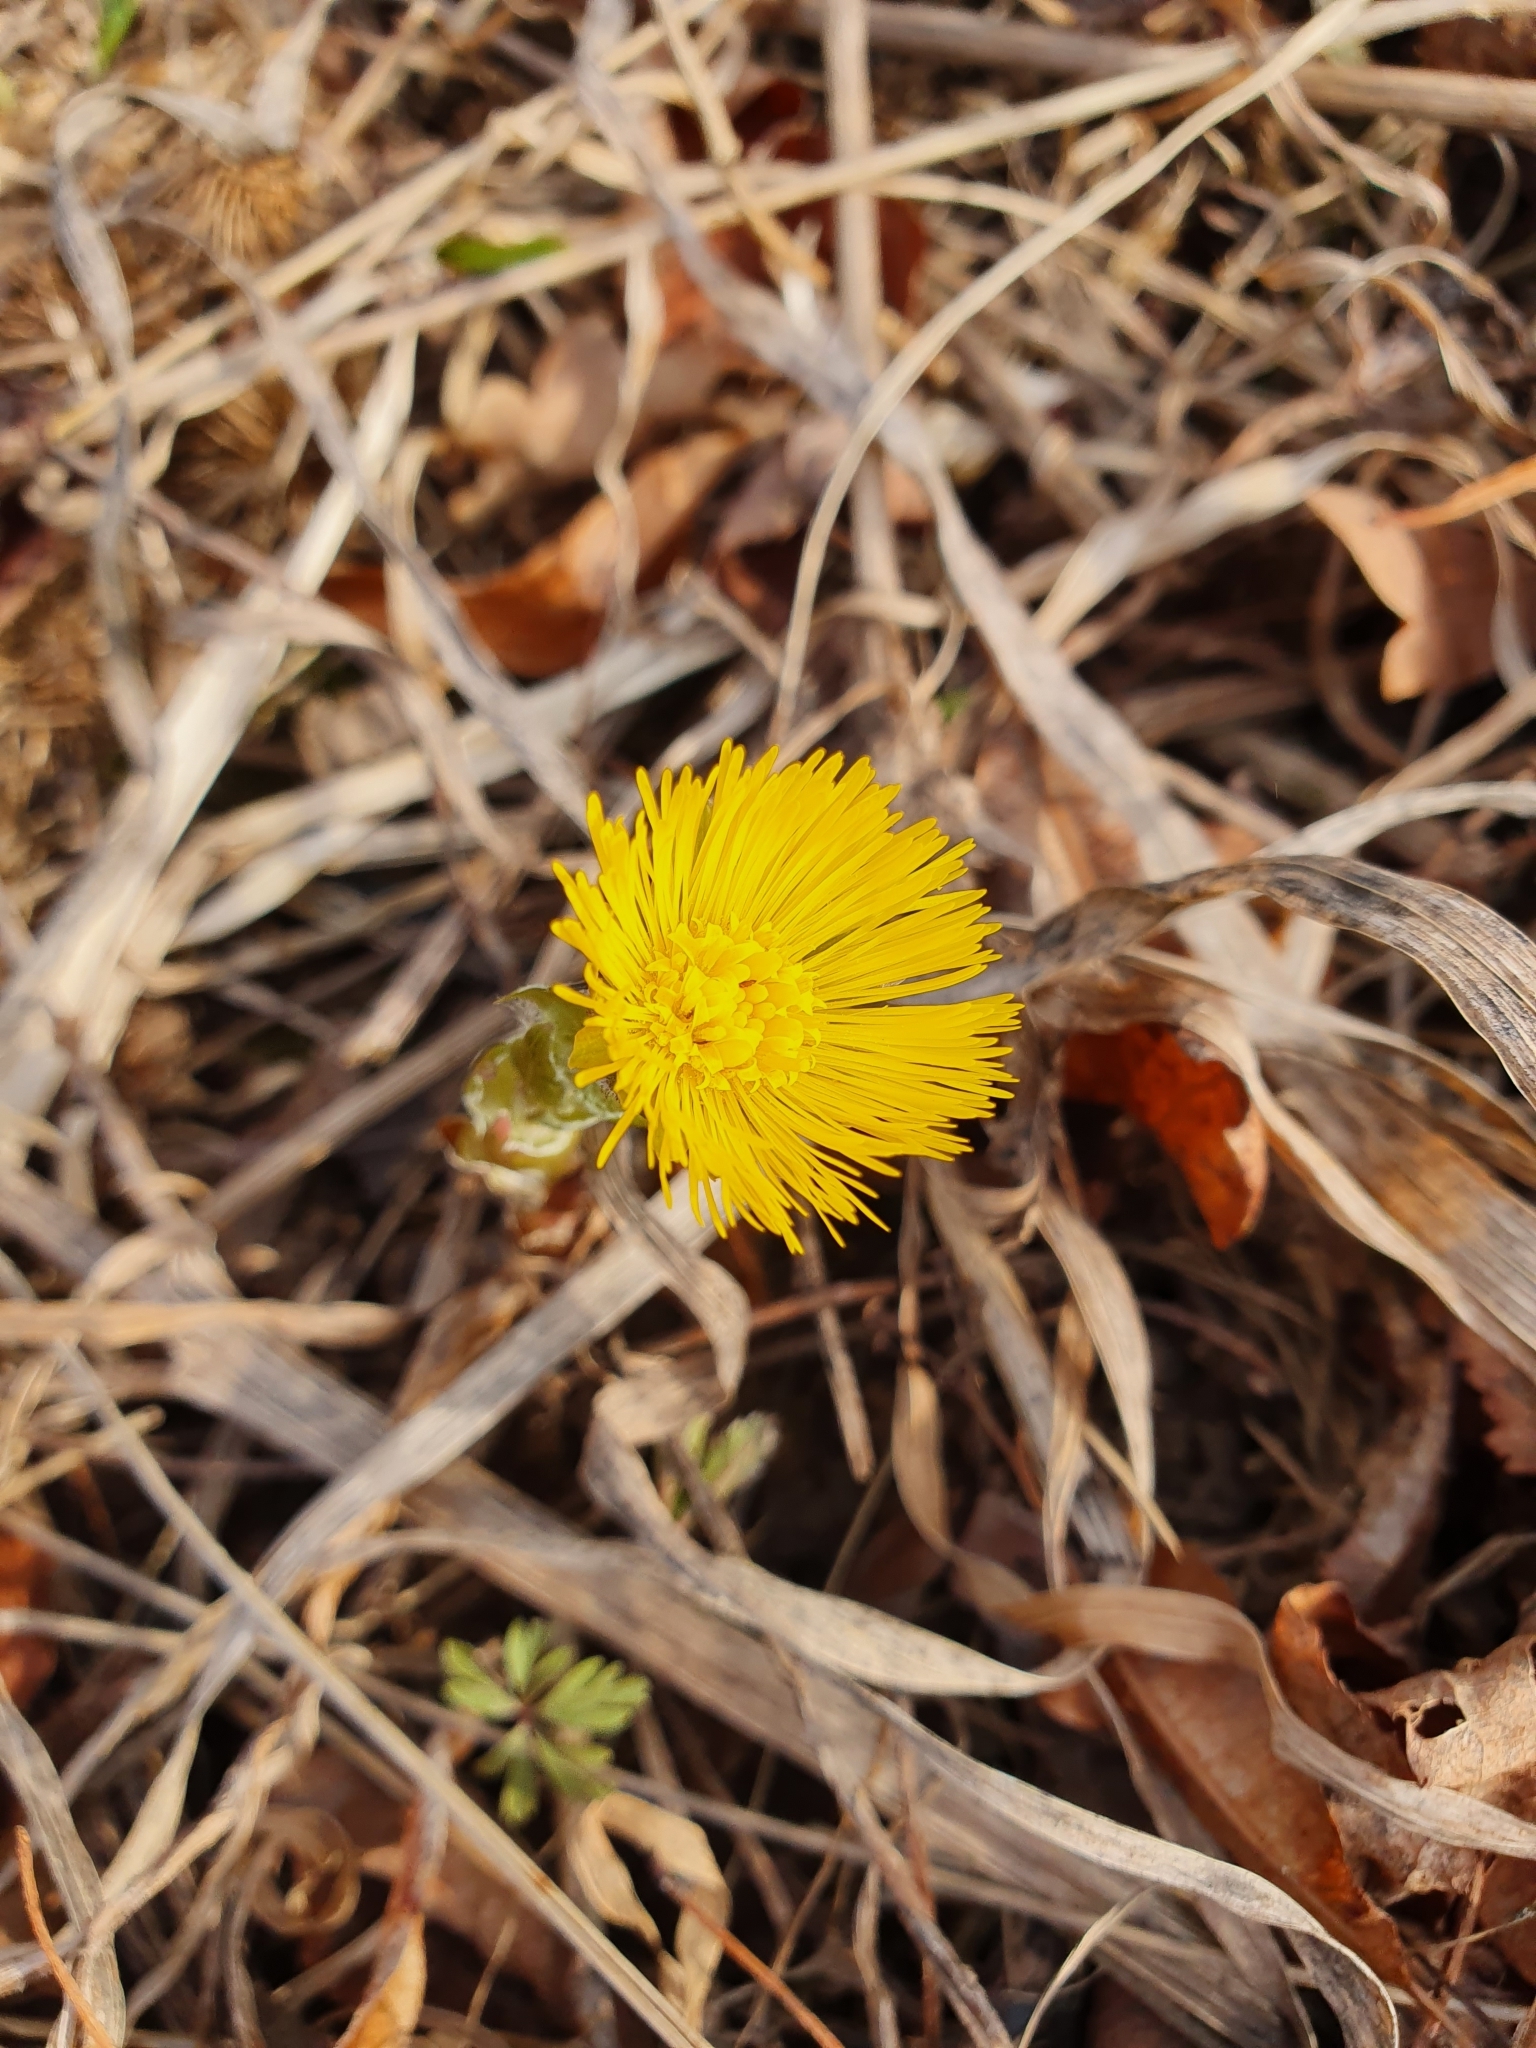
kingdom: Plantae
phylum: Tracheophyta
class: Magnoliopsida
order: Asterales
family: Asteraceae
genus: Tussilago
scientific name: Tussilago farfara
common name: Coltsfoot
